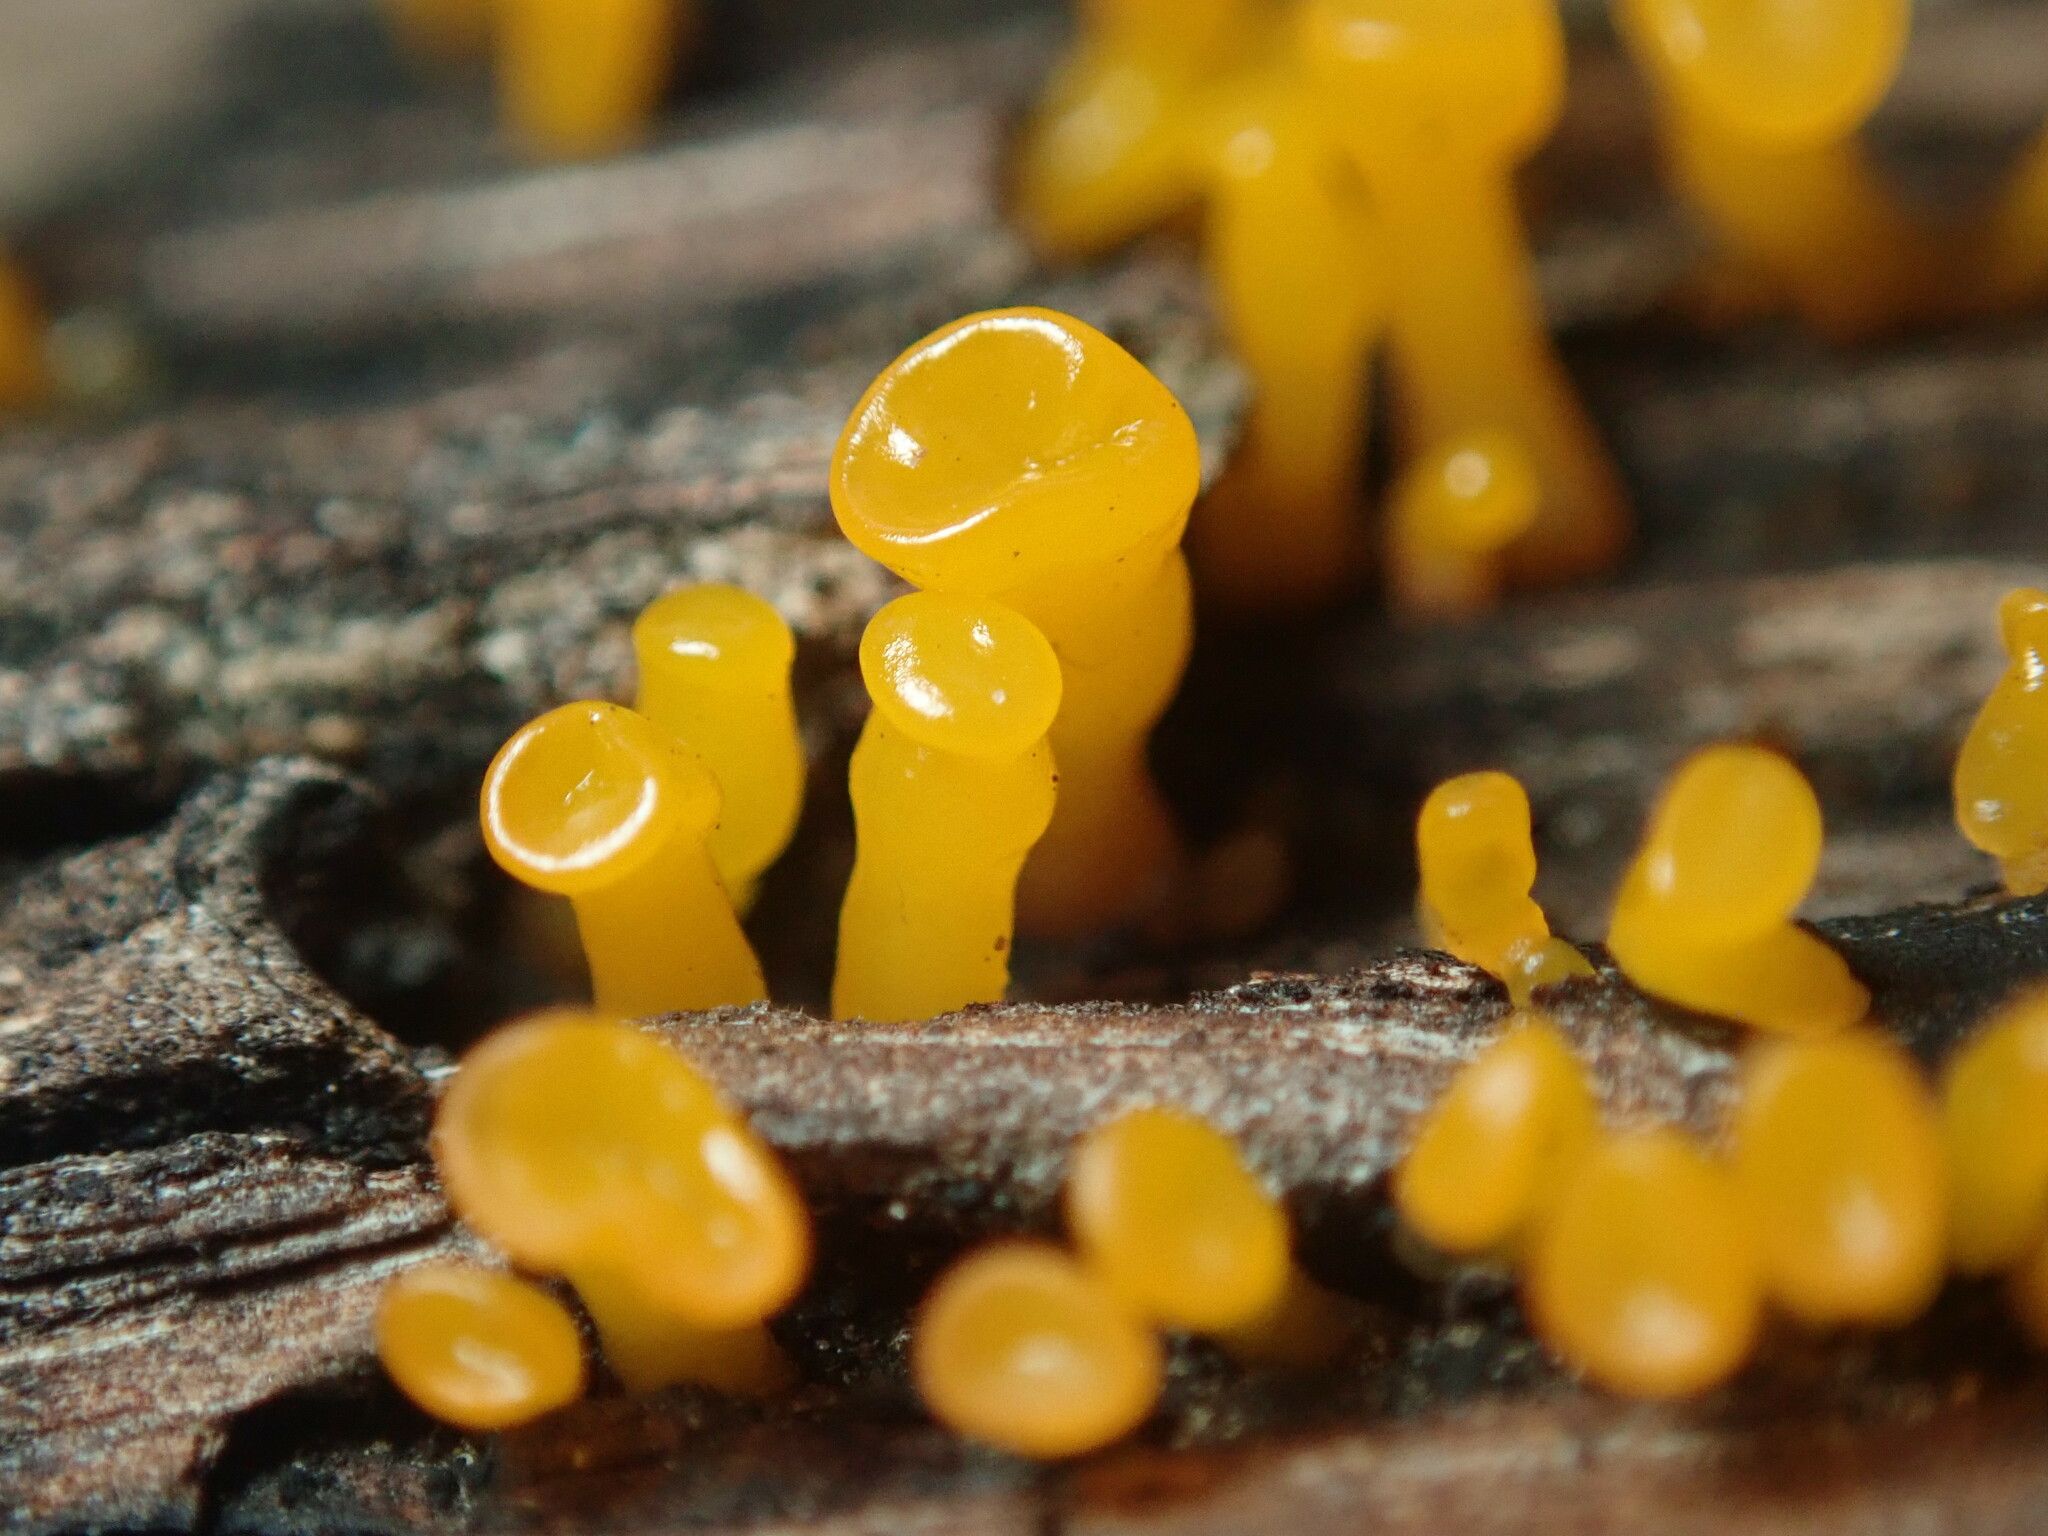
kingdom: Fungi
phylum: Basidiomycota
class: Dacrymycetes
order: Dacrymycetales
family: Dacrymycetaceae
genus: Dacrymyces
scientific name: Dacrymyces capitatus
